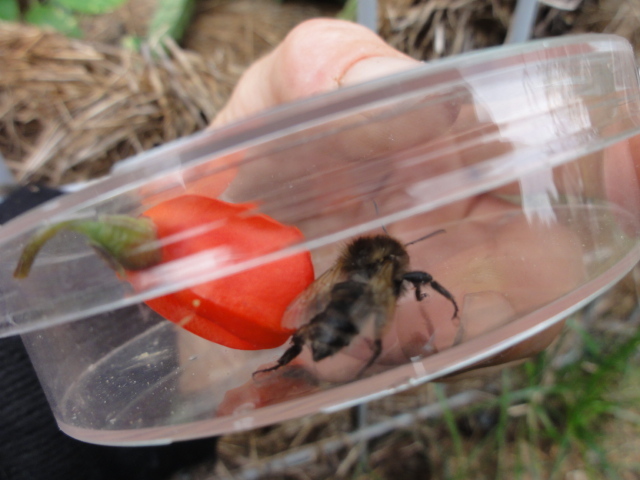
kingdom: Animalia
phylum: Arthropoda
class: Insecta
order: Hymenoptera
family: Apidae
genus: Bombus
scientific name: Bombus pascuorum
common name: Common carder bee
